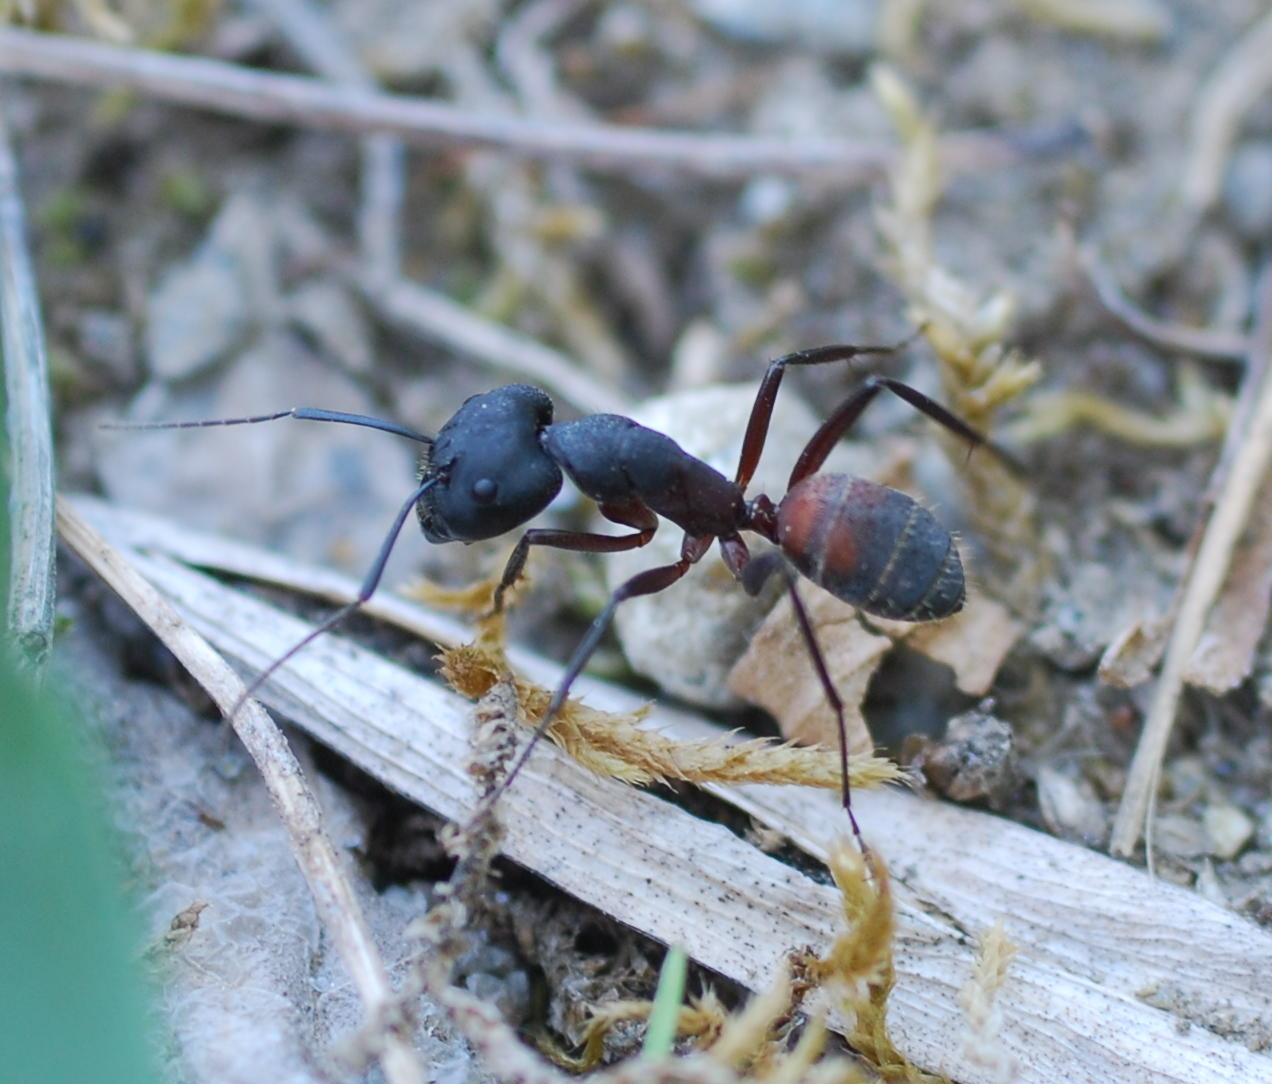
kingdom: Animalia
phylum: Arthropoda
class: Insecta
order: Hymenoptera
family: Formicidae
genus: Camponotus
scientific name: Camponotus cruentatus
